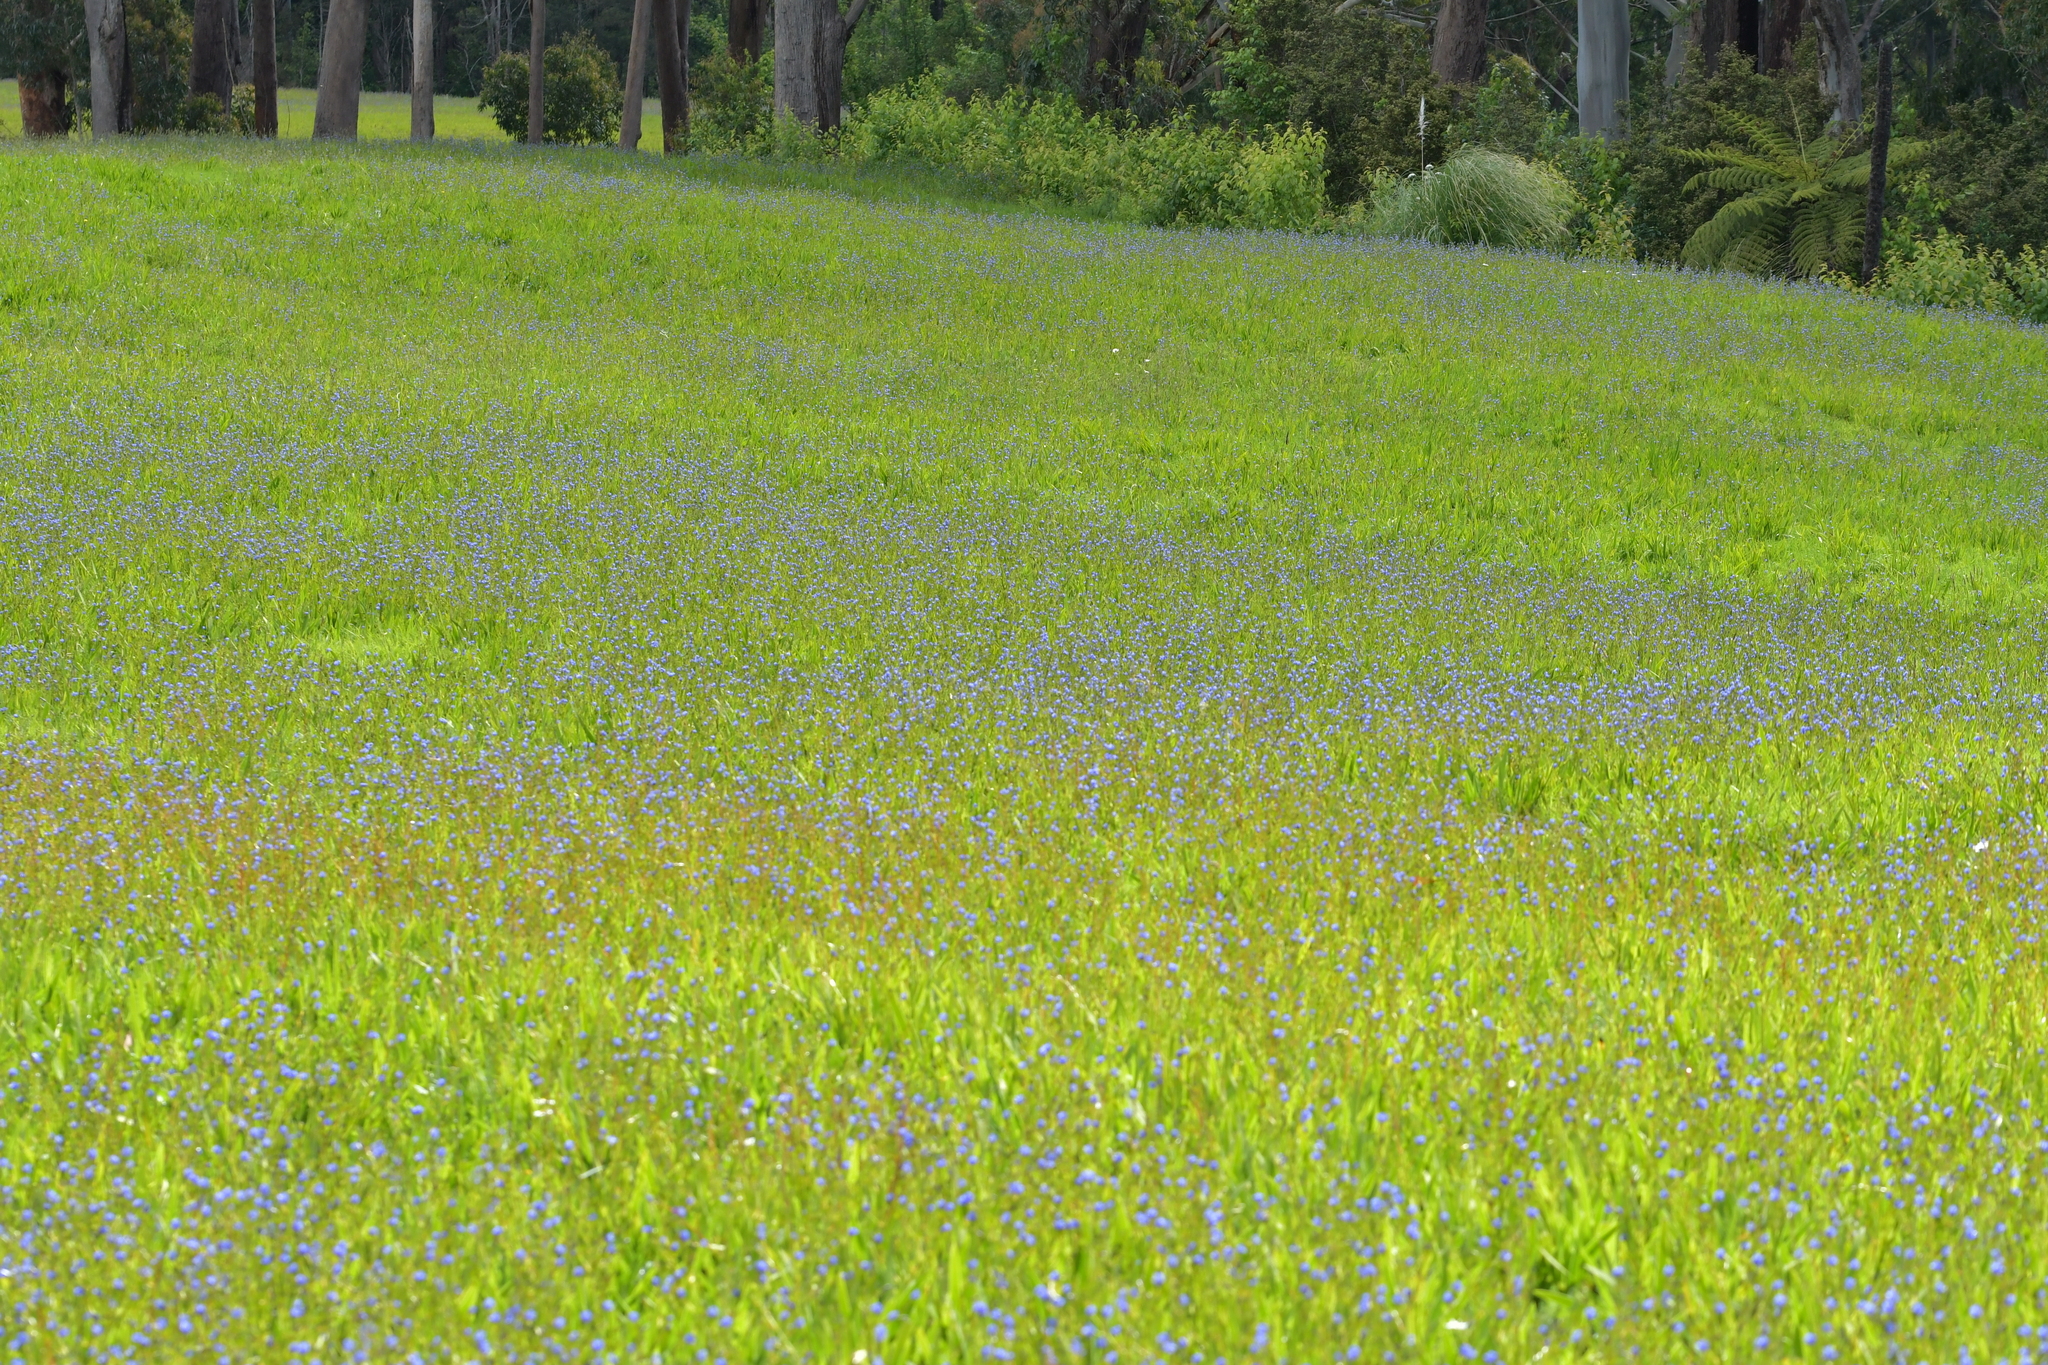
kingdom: Plantae
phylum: Tracheophyta
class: Liliopsida
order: Asparagales
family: Iridaceae
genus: Aristea
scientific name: Aristea ecklonii
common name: Blue corn-lily
